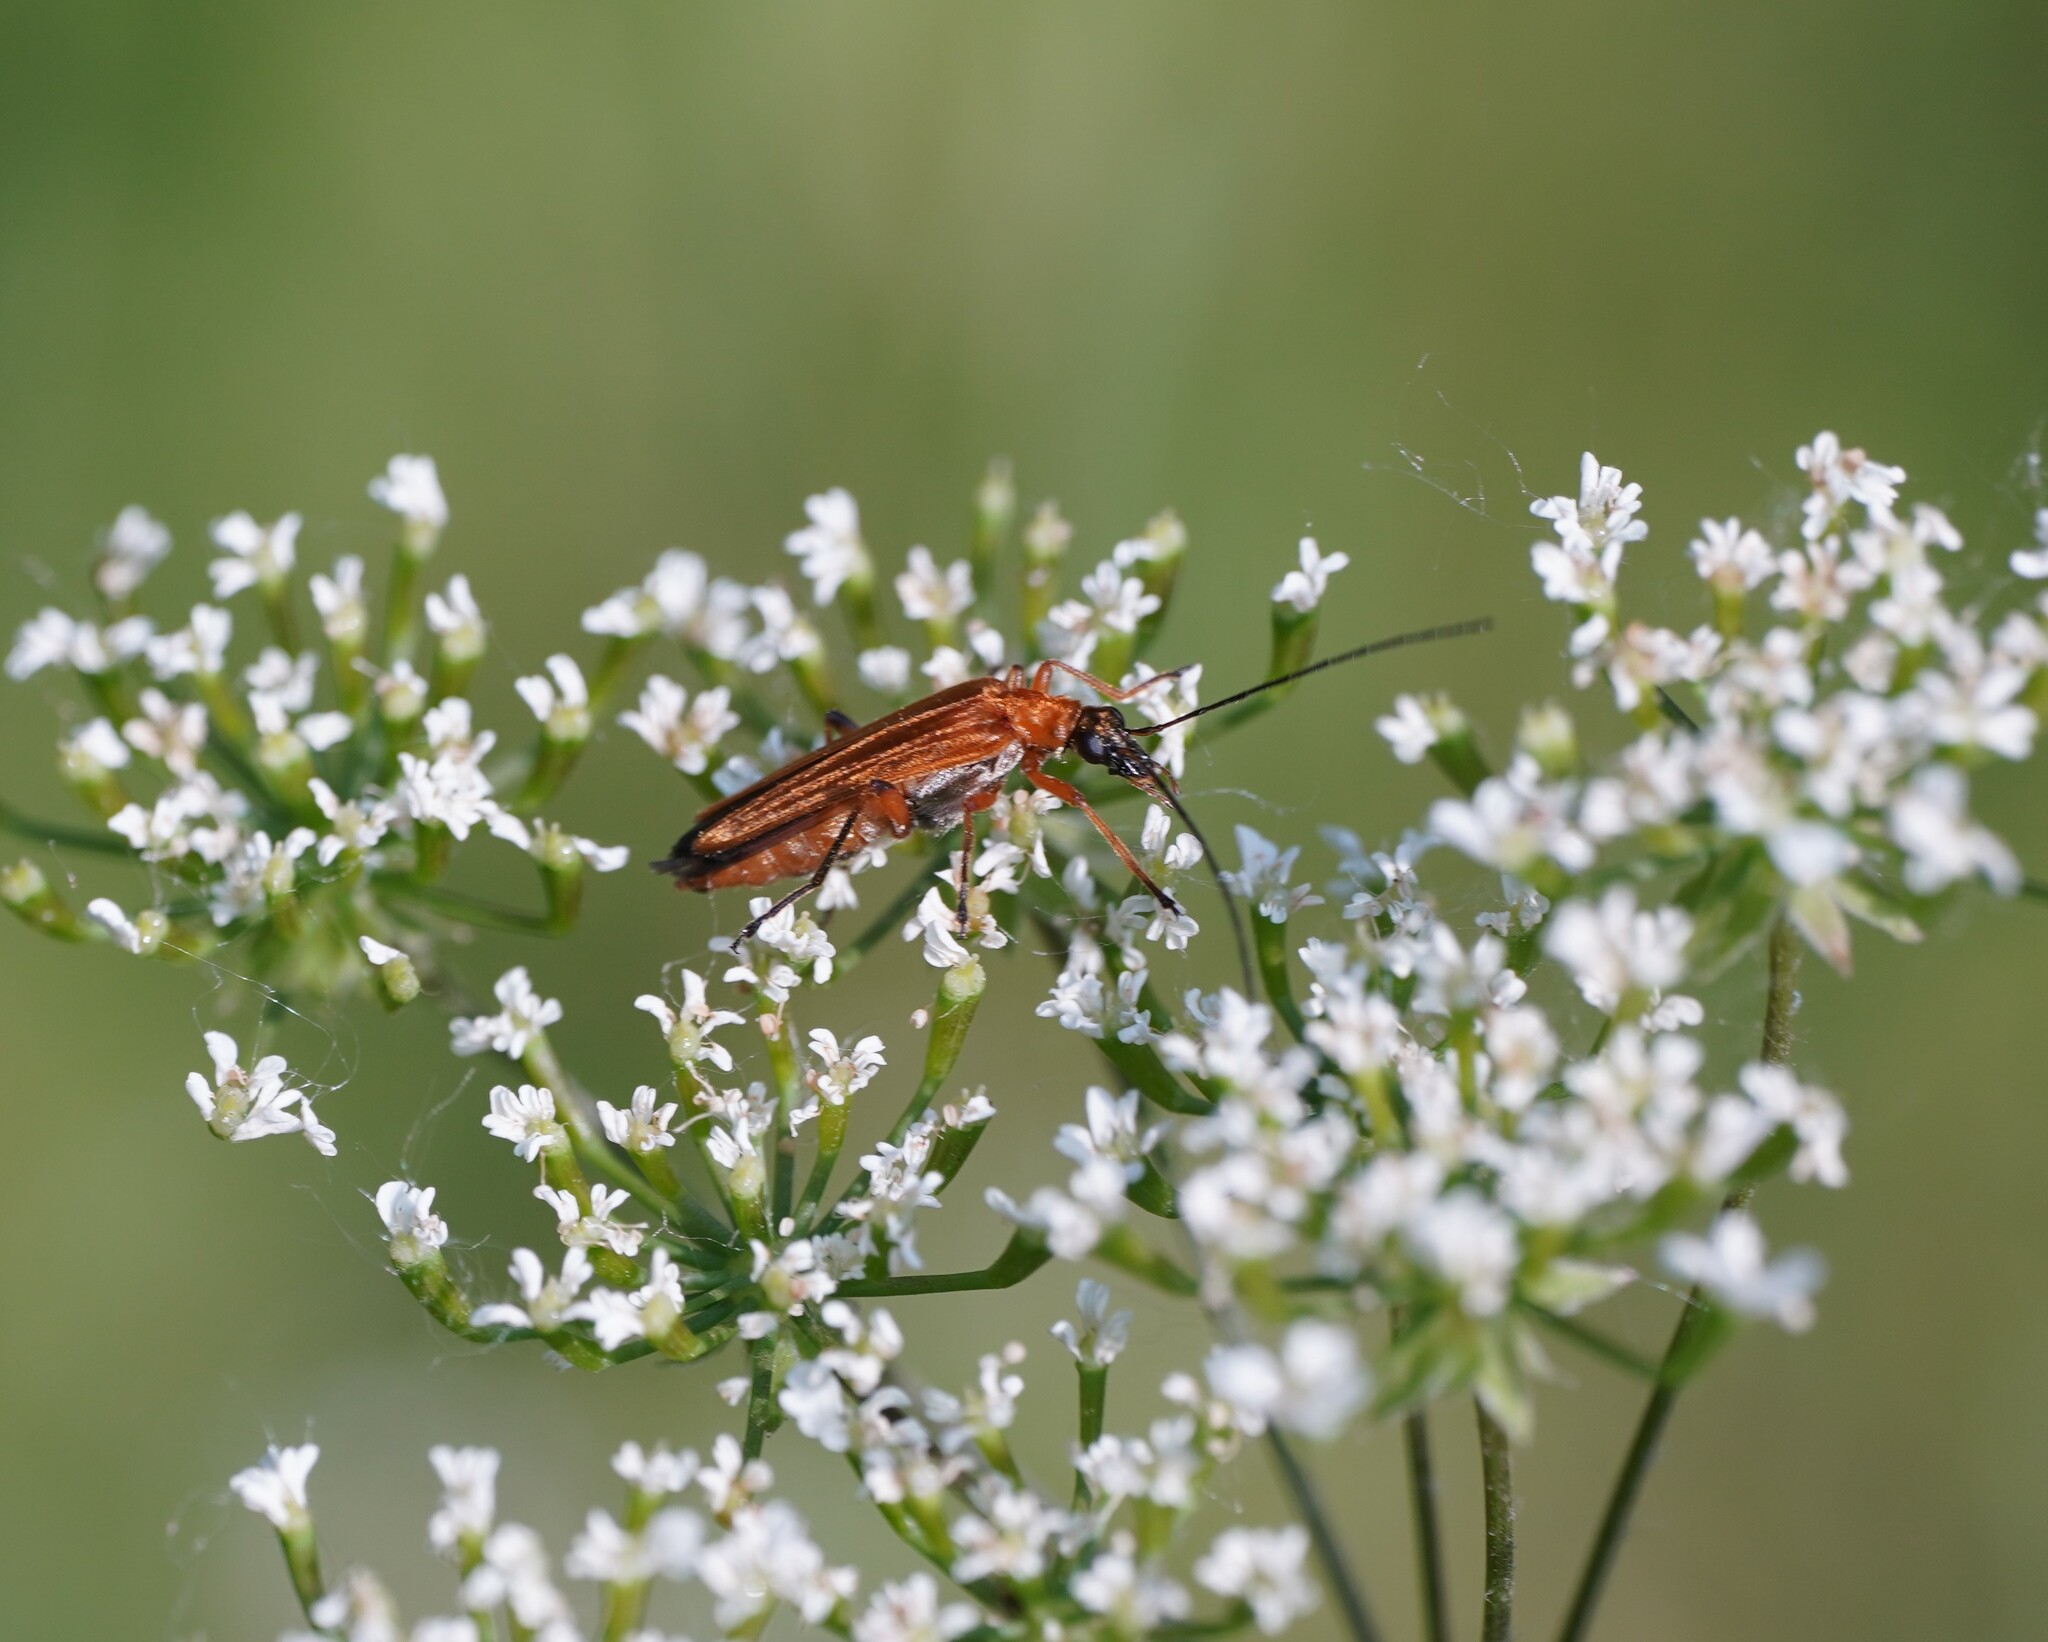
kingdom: Animalia
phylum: Arthropoda
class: Insecta
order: Coleoptera
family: Oedemeridae
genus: Oedemera
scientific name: Oedemera podagrariae
